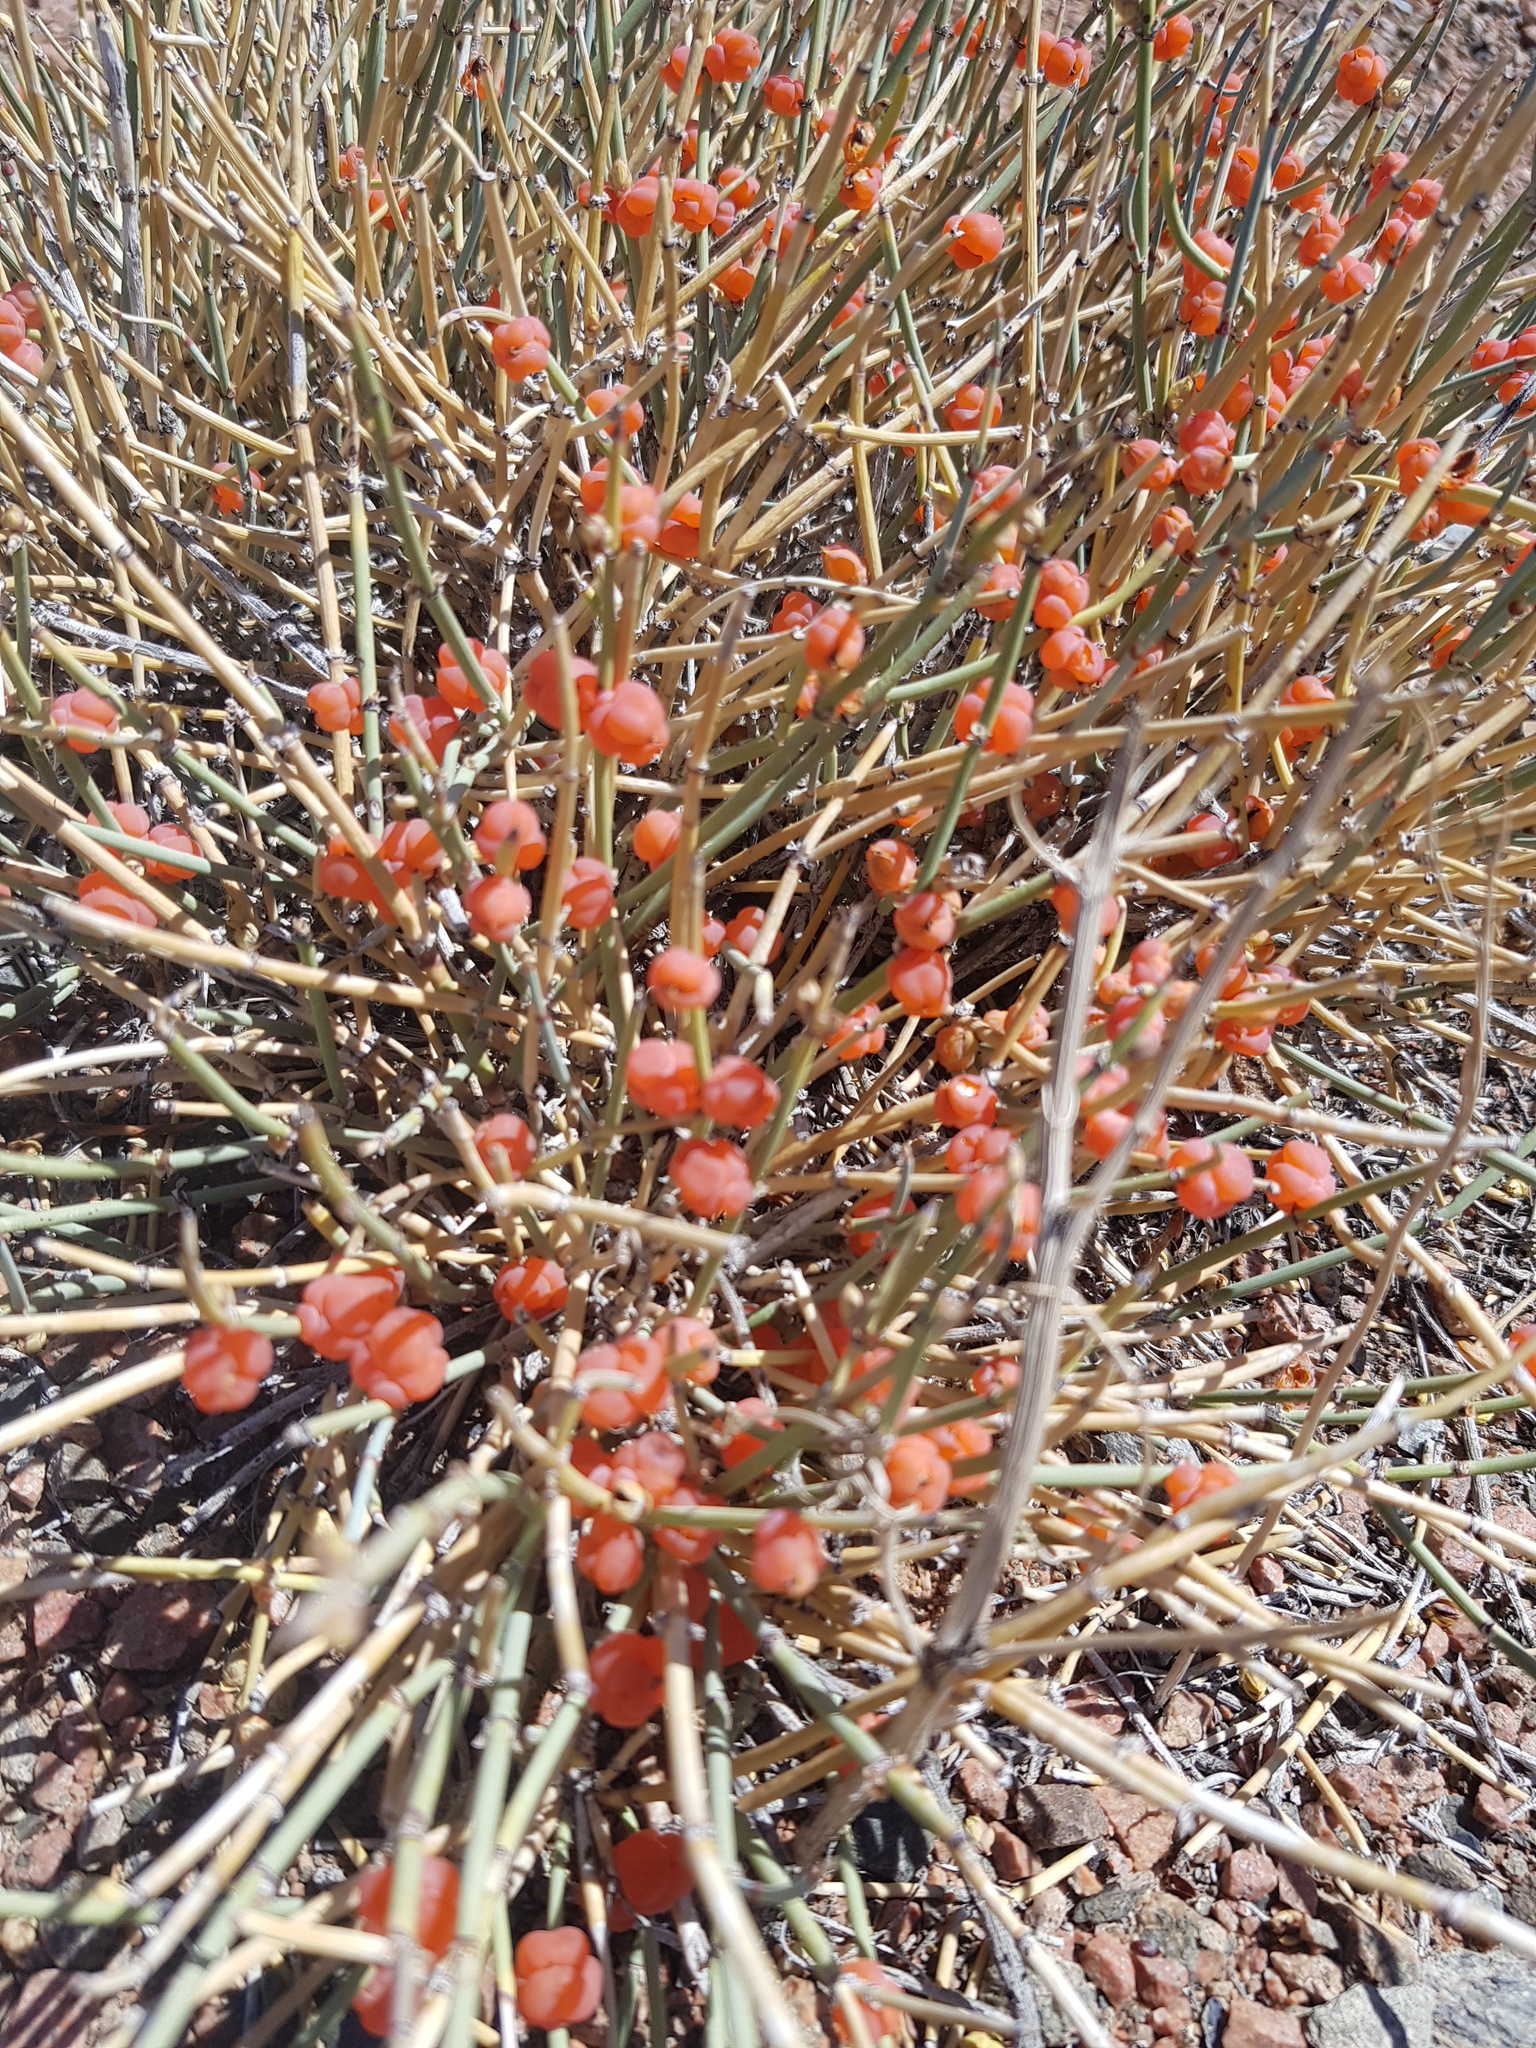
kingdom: Plantae
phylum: Tracheophyta
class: Gnetopsida
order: Ephedrales
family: Ephedraceae
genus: Ephedra
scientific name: Ephedra equisetina
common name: Mongolian ephedra
